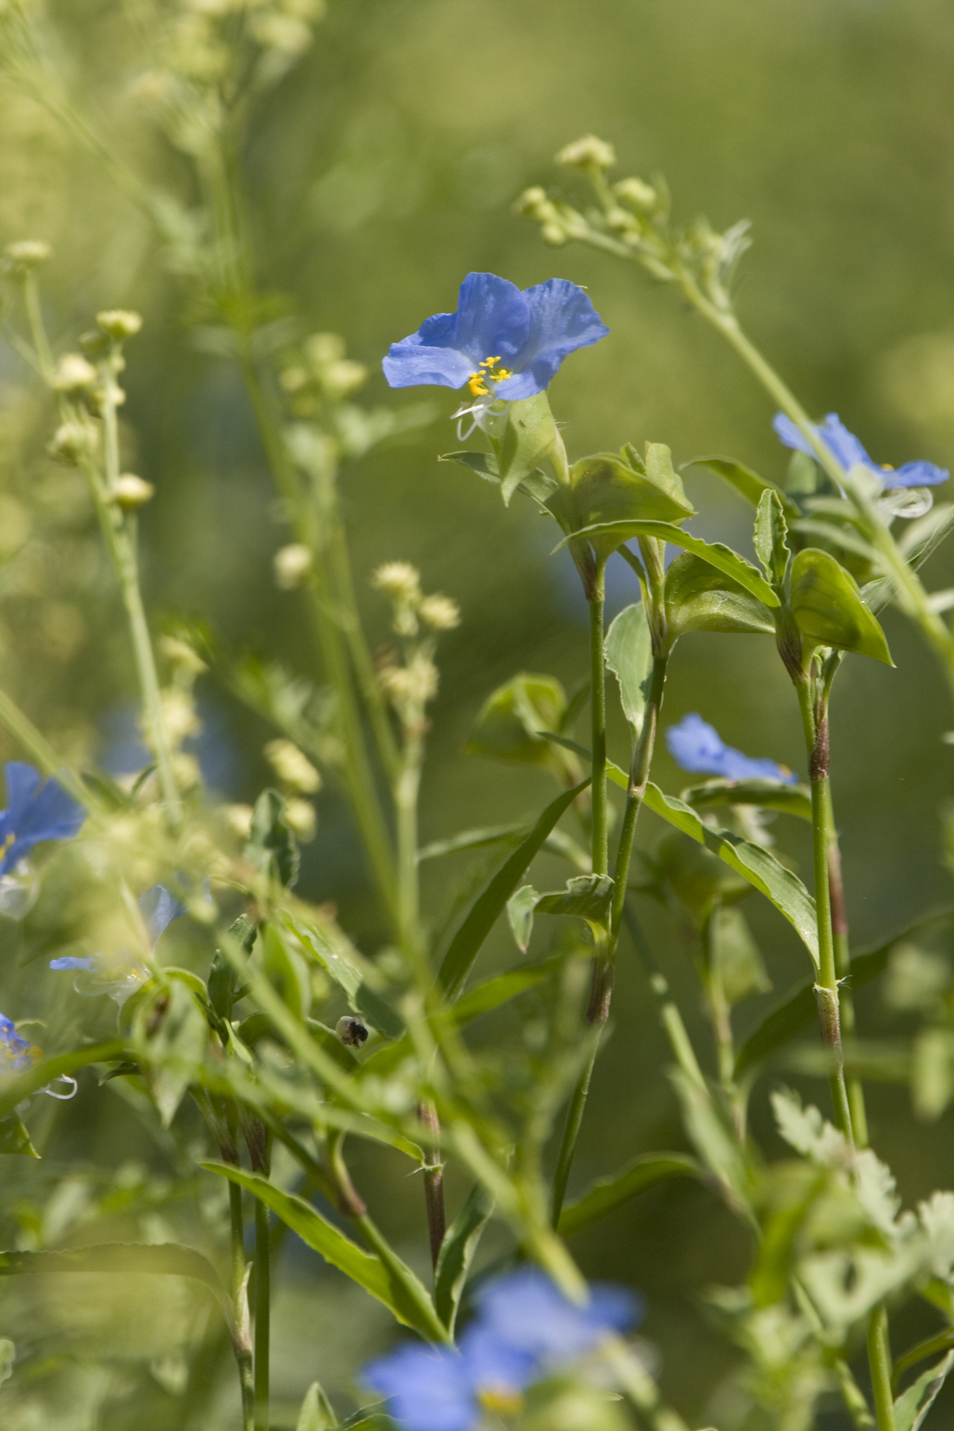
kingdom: Plantae
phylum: Tracheophyta
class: Liliopsida
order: Commelinales
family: Commelinaceae
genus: Commelina
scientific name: Commelina erecta
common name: Blousel blommetjie
